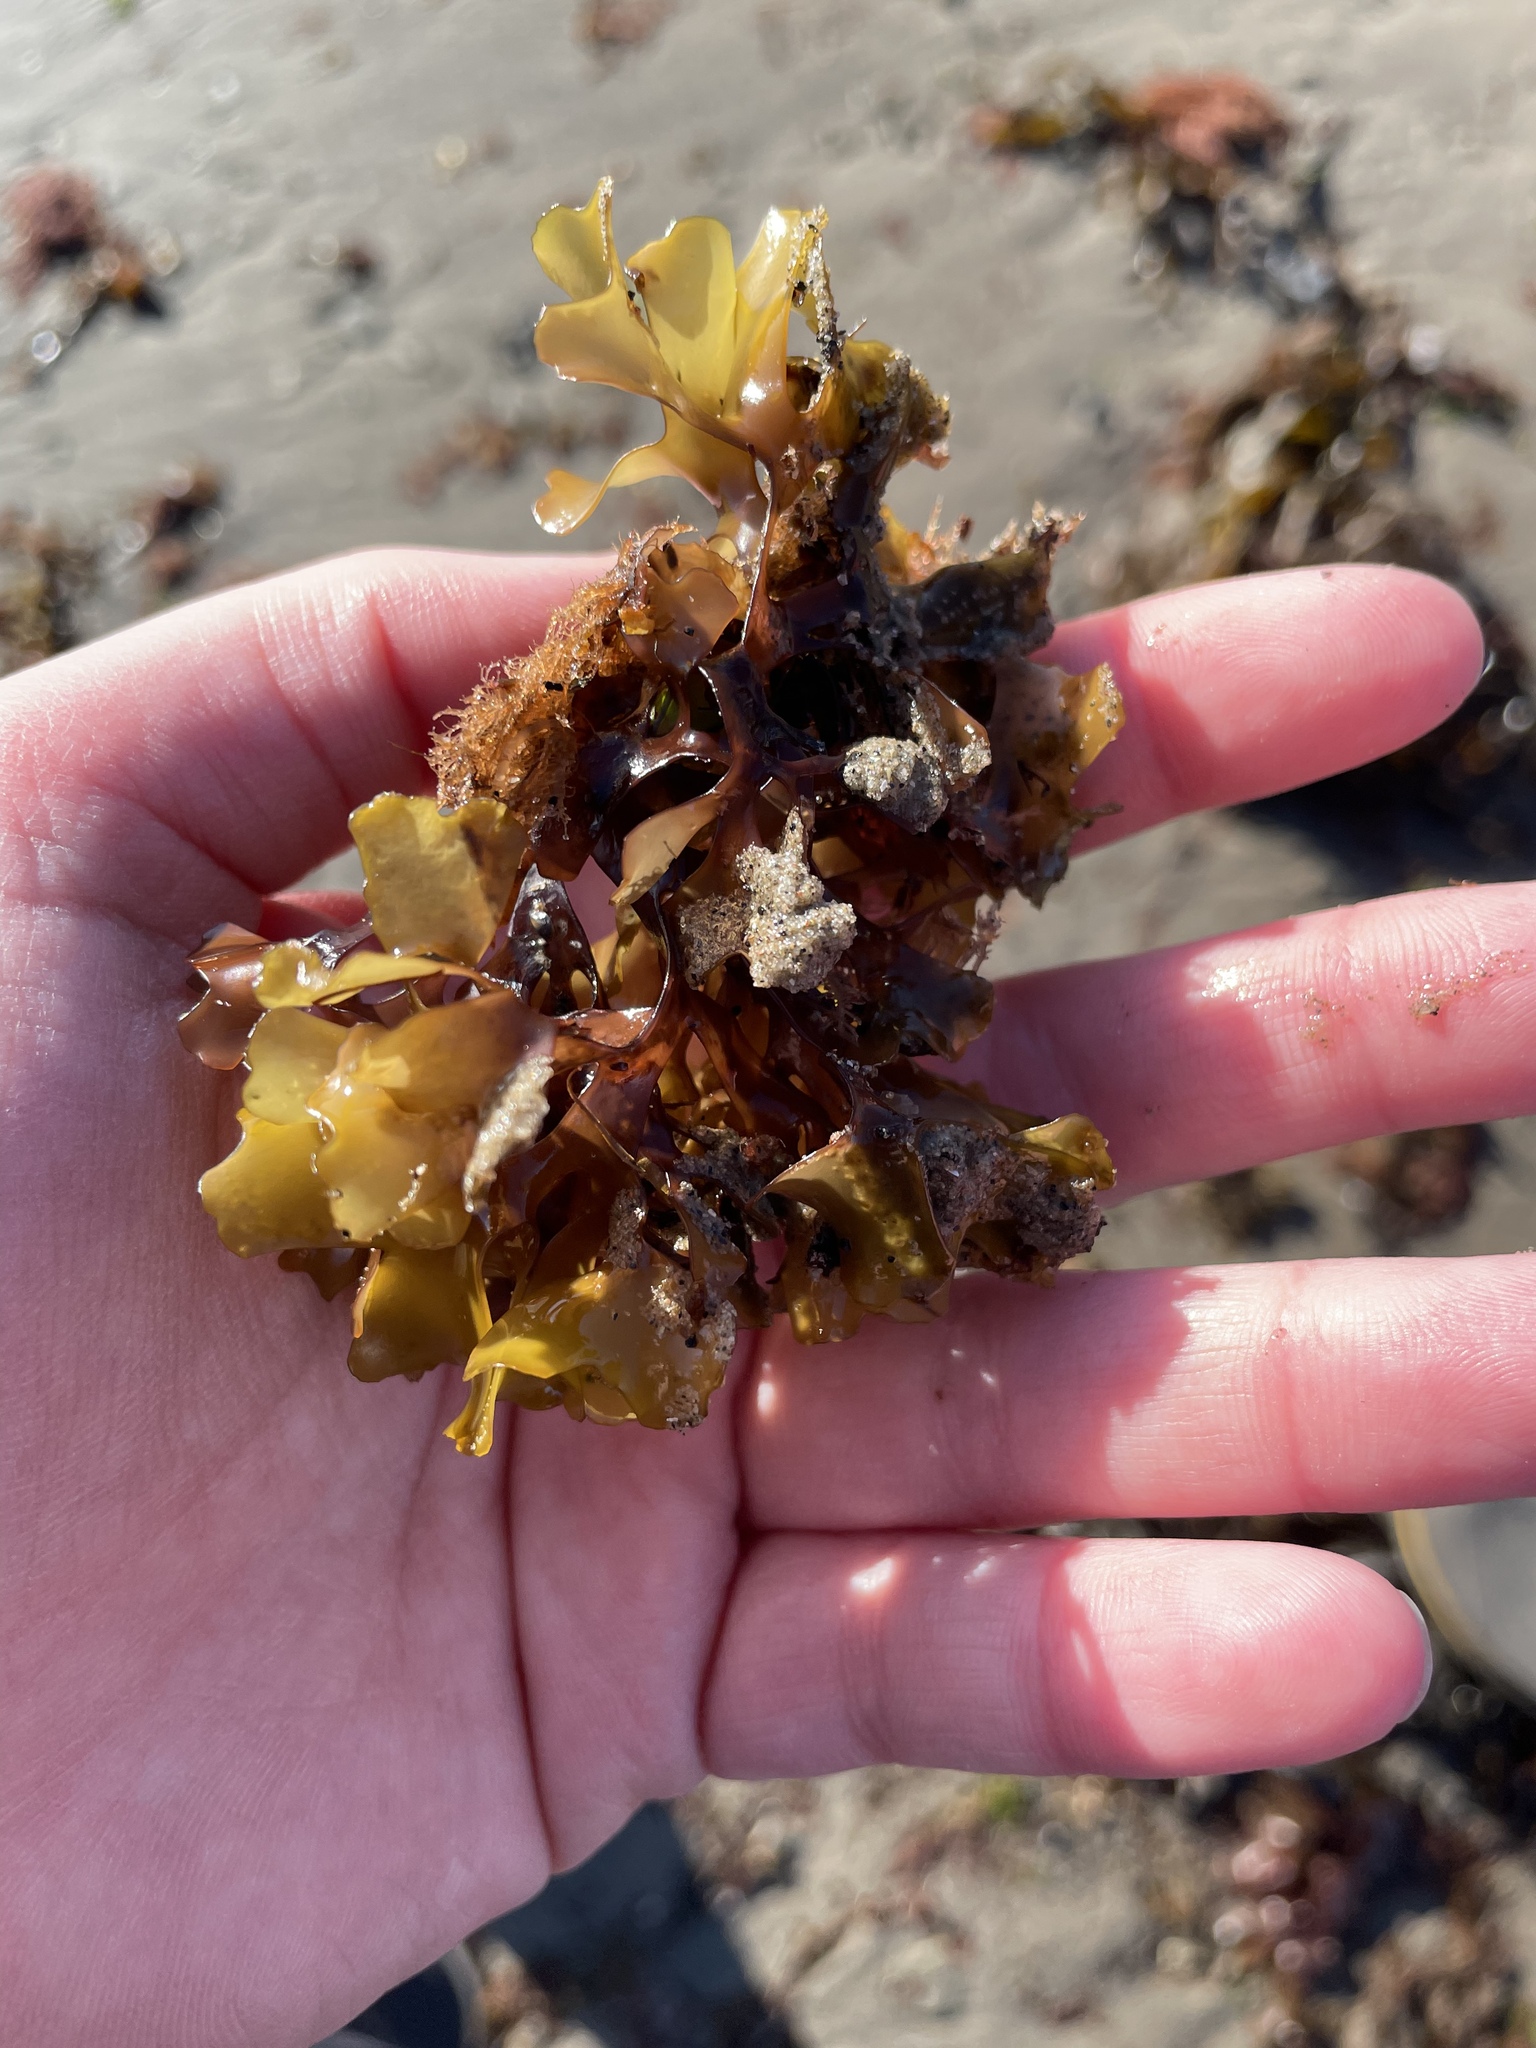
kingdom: Plantae
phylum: Rhodophyta
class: Florideophyceae
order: Gigartinales
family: Gigartinaceae
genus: Chondrus
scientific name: Chondrus crispus
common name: Carrageen
